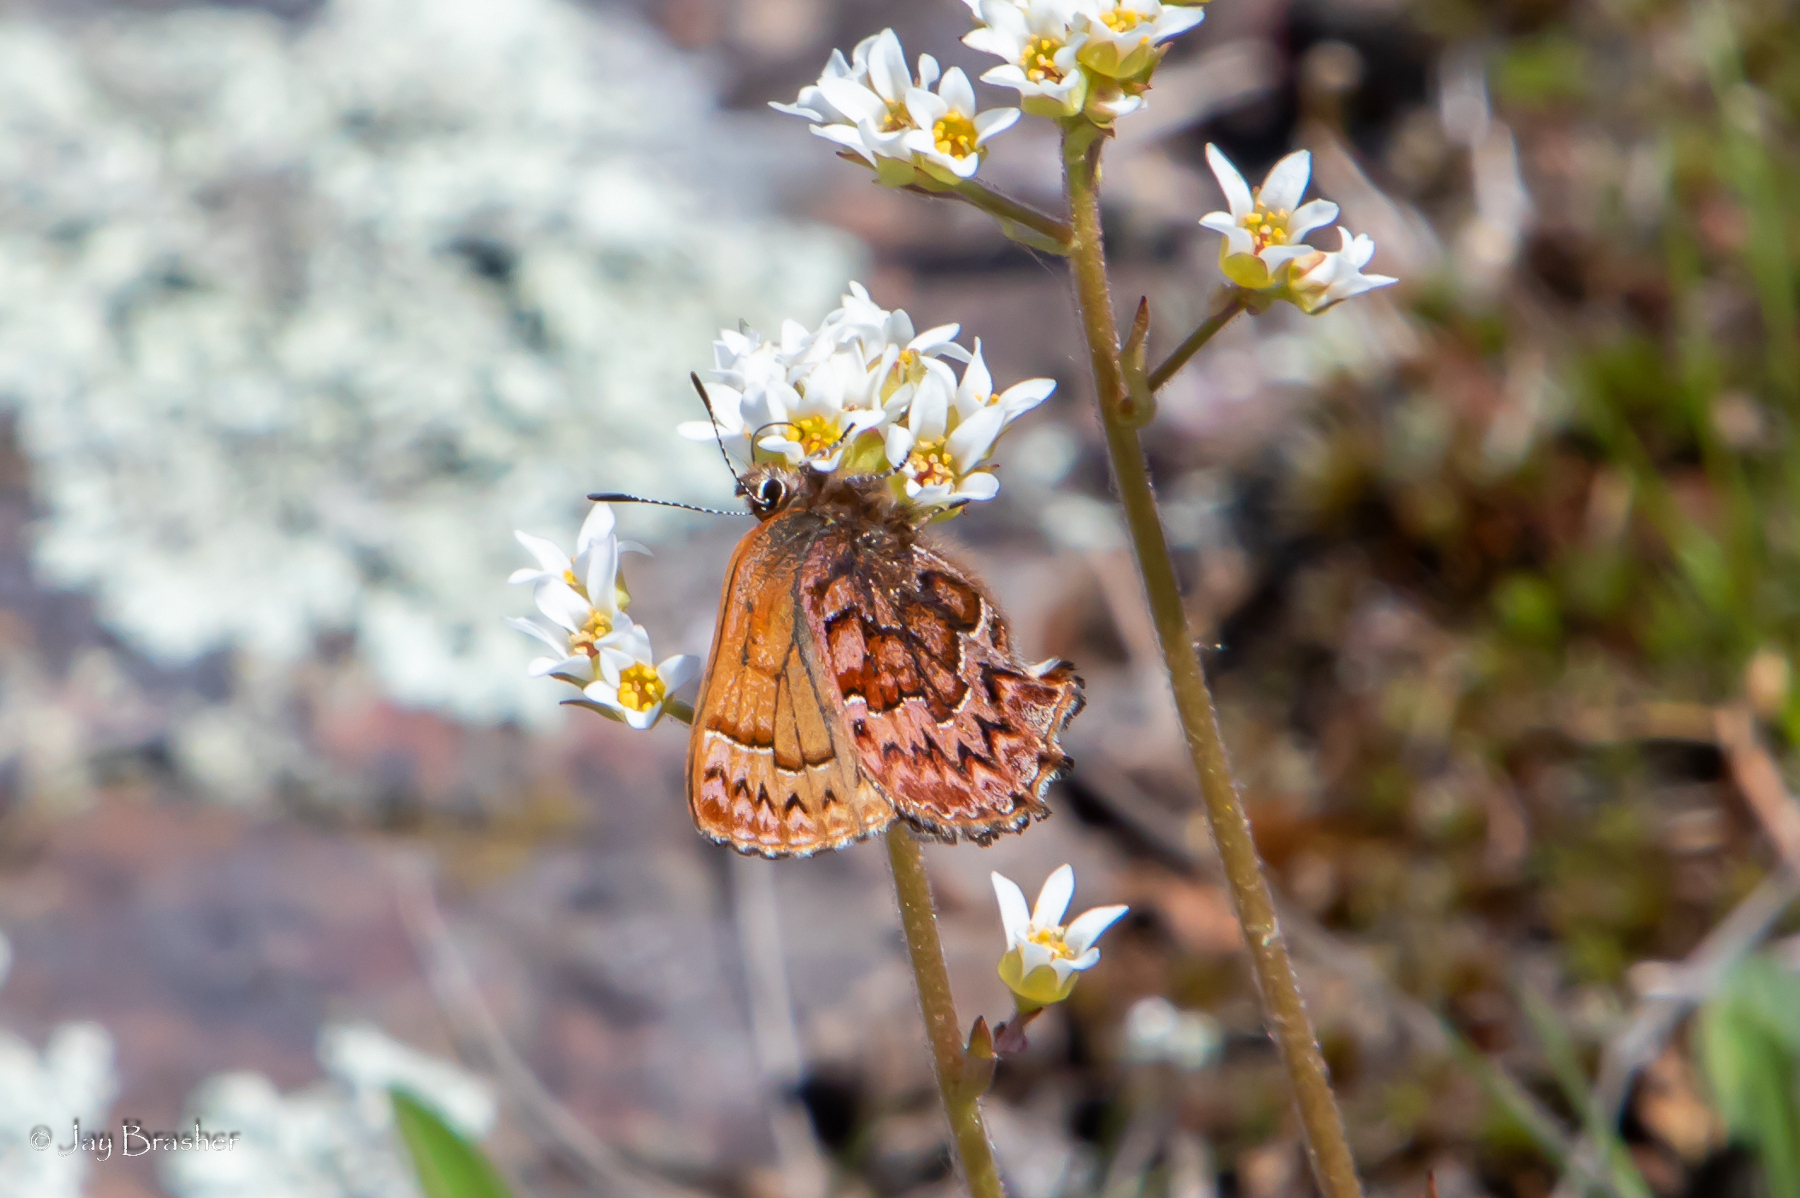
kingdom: Animalia
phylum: Arthropoda
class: Insecta
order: Lepidoptera
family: Lycaenidae
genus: Incisalia
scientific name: Incisalia eryphon
